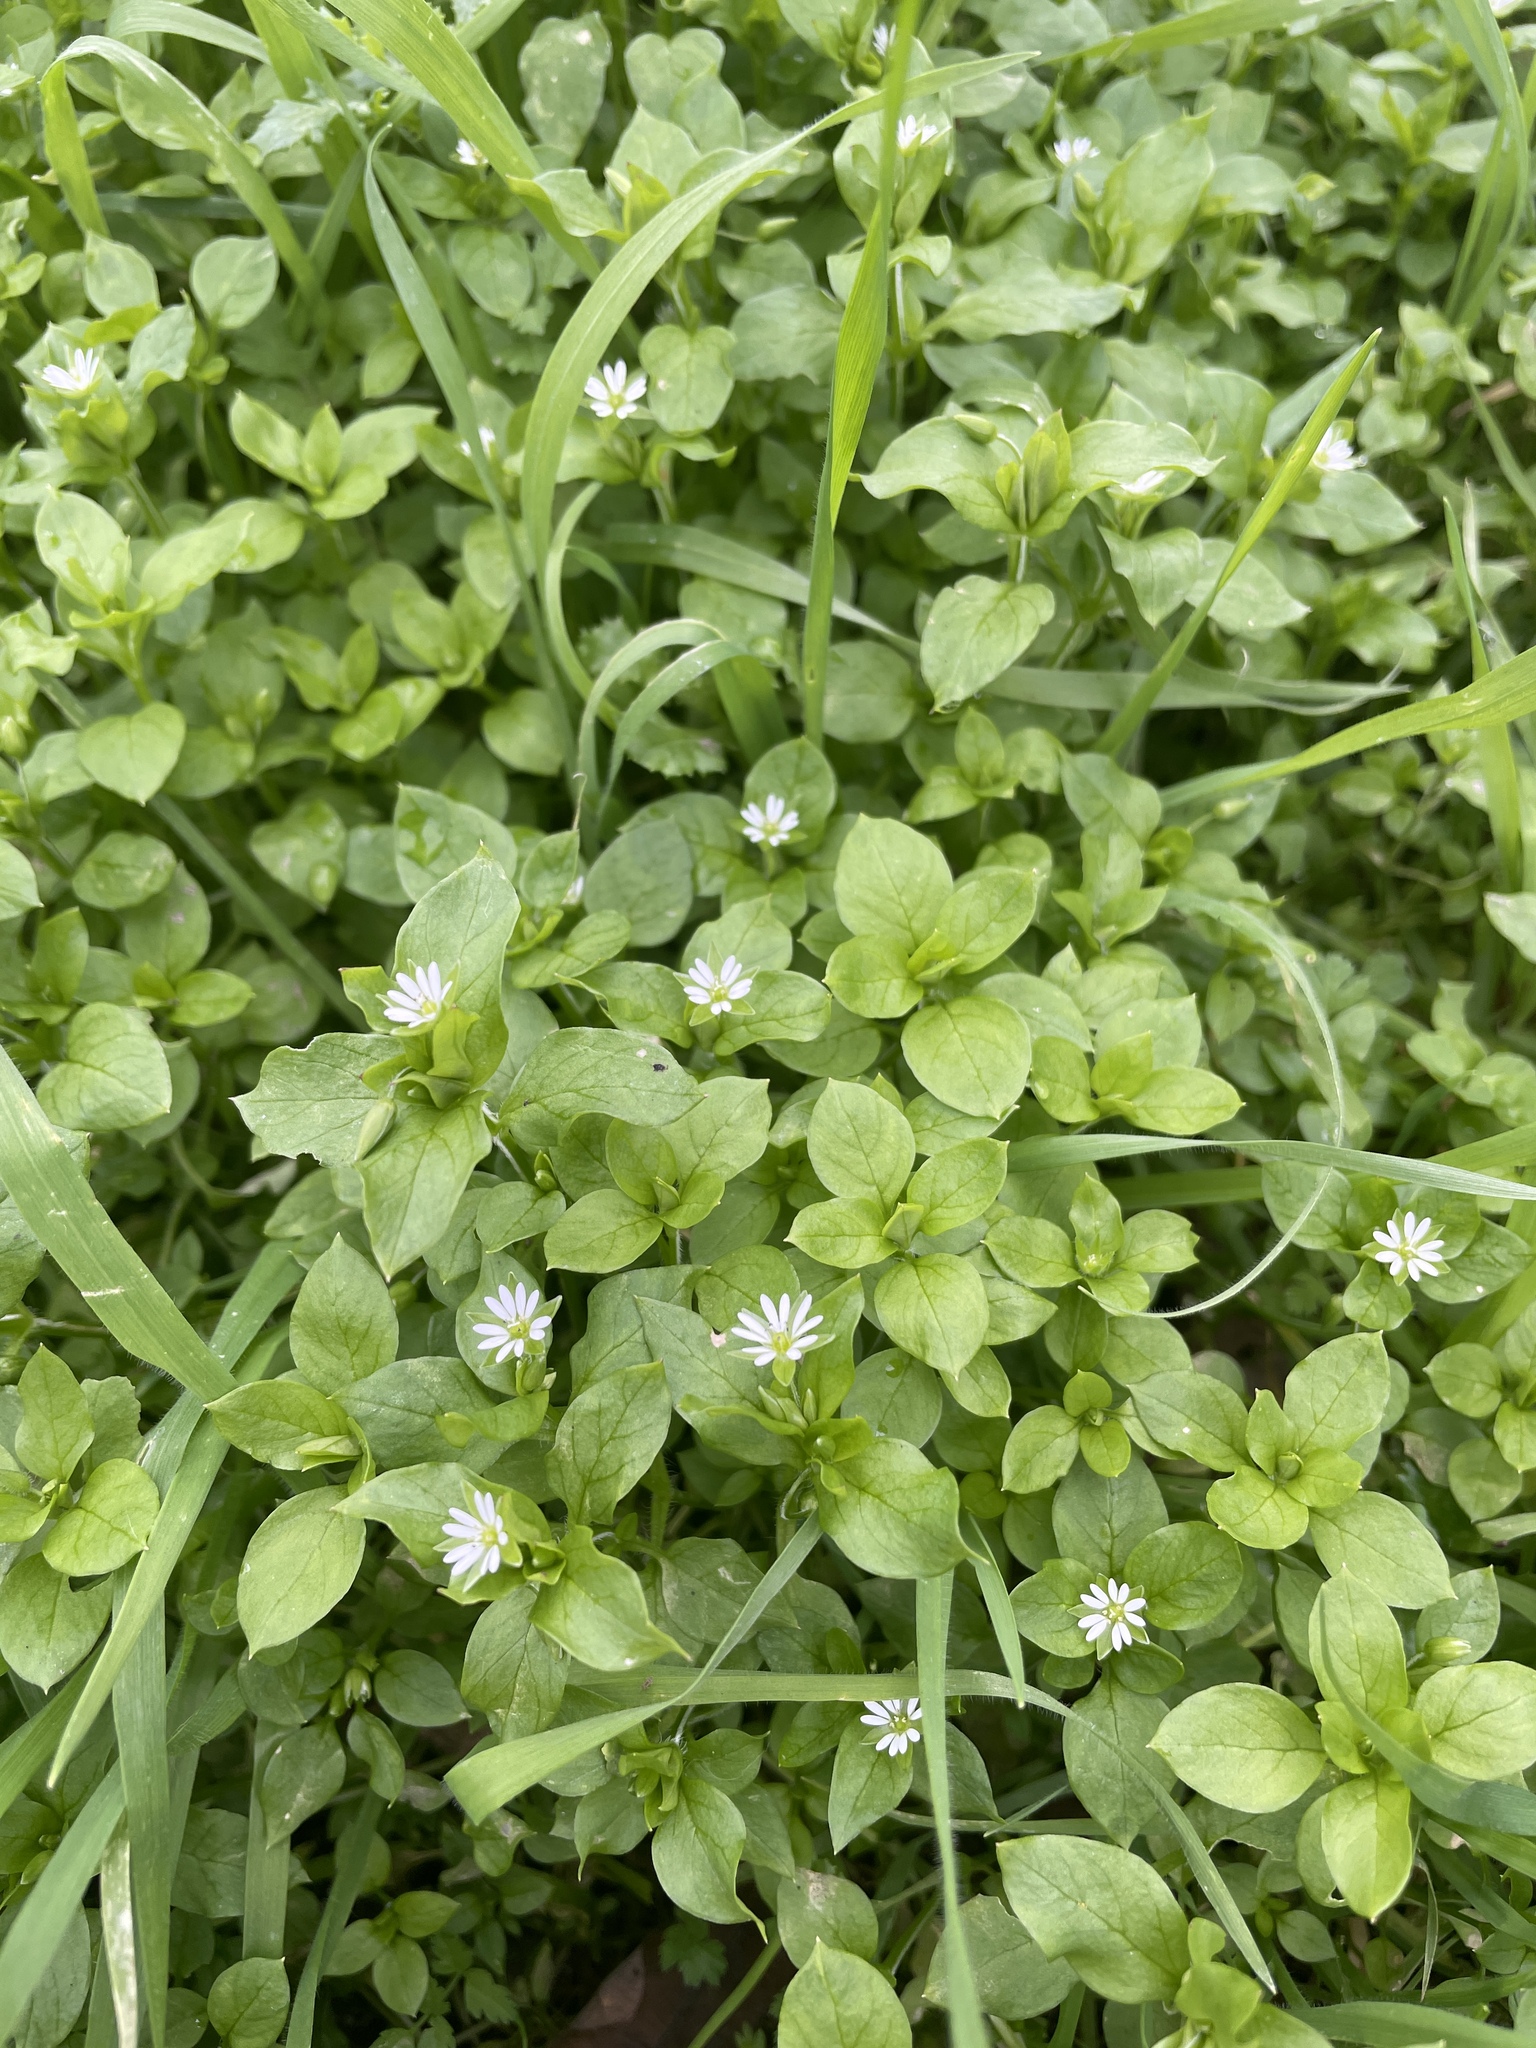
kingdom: Plantae
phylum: Tracheophyta
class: Magnoliopsida
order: Caryophyllales
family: Caryophyllaceae
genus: Stellaria
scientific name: Stellaria media
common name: Common chickweed
